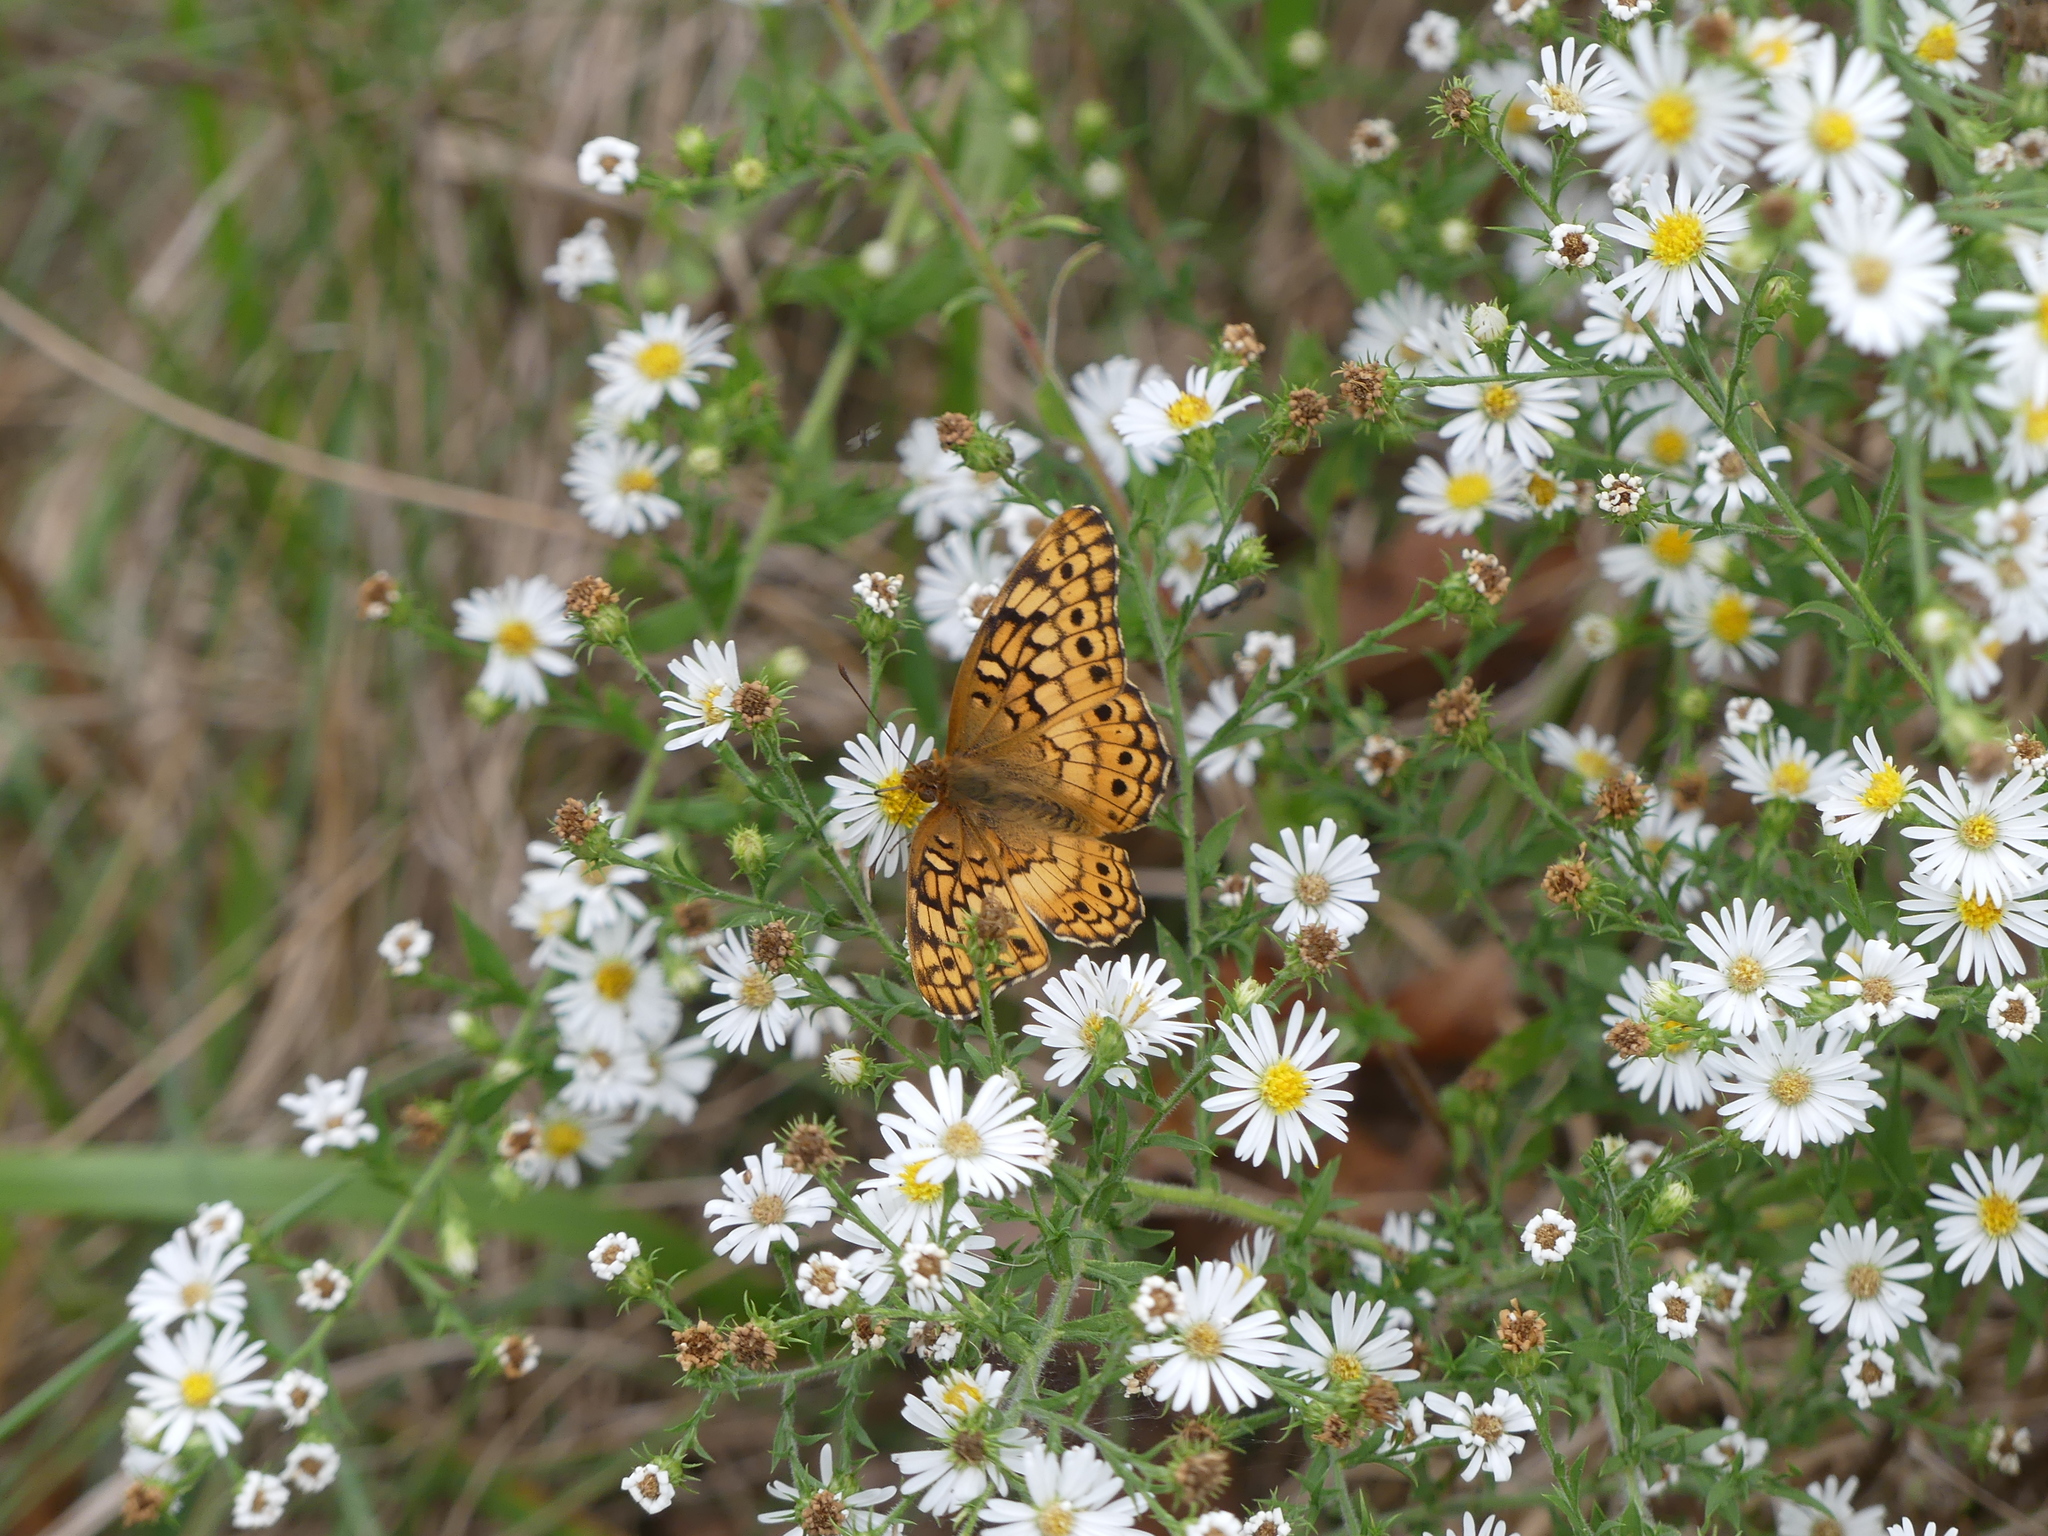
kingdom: Animalia
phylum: Arthropoda
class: Insecta
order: Lepidoptera
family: Nymphalidae
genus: Euptoieta
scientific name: Euptoieta claudia
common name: Variegated fritillary
